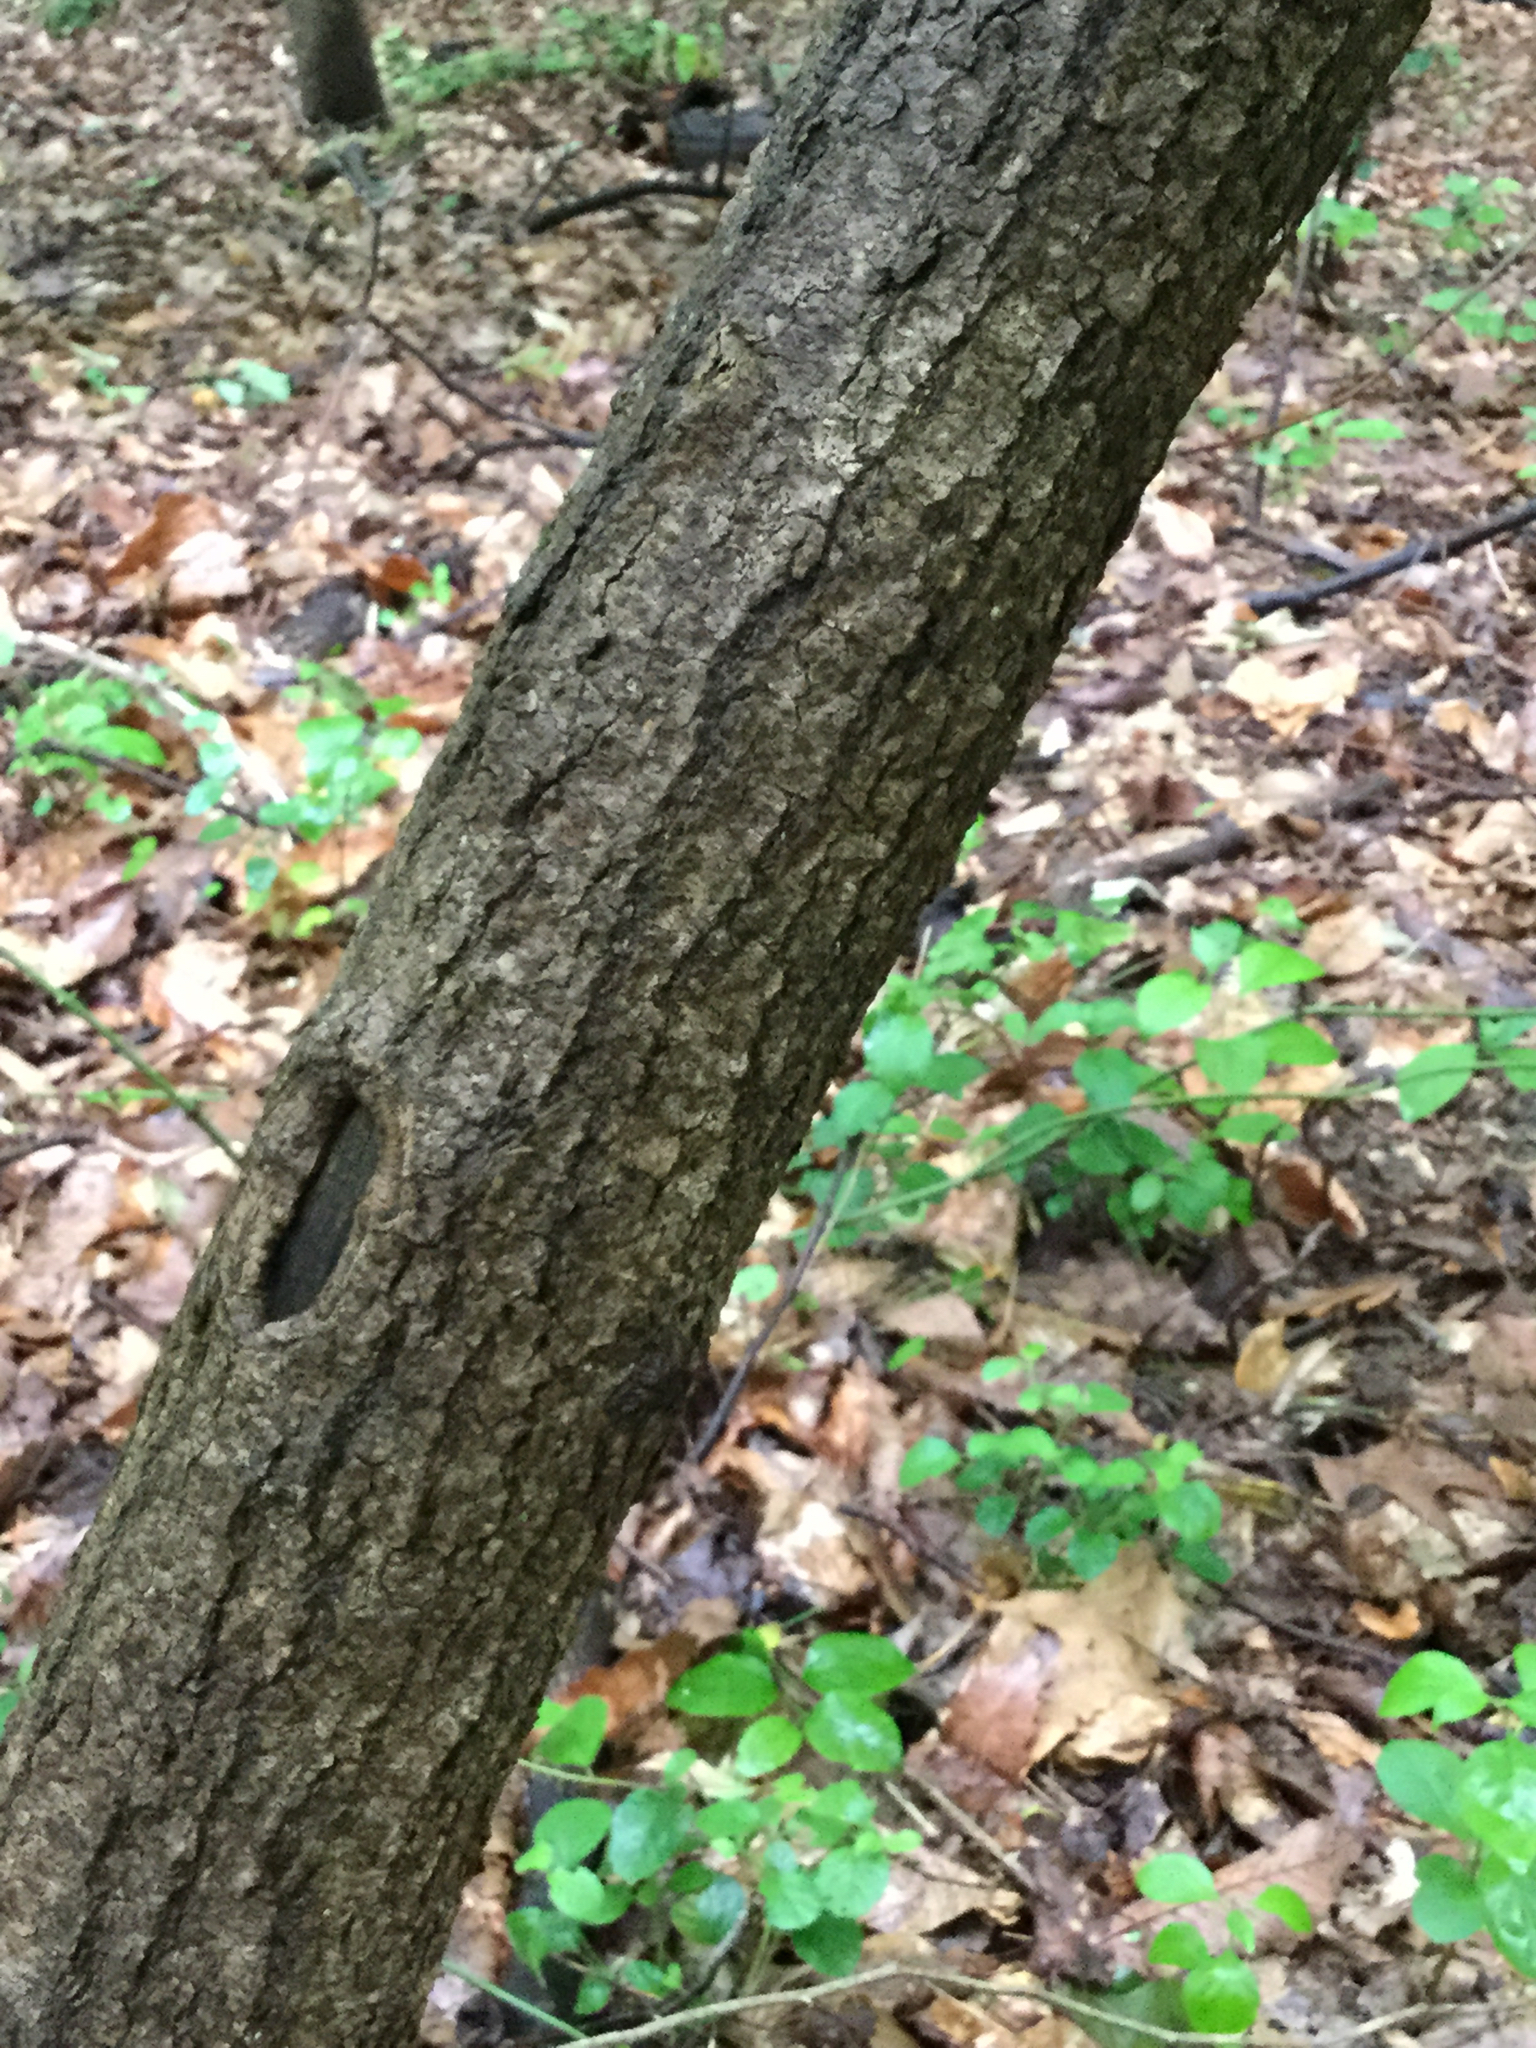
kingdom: Plantae
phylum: Tracheophyta
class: Magnoliopsida
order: Sapindales
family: Sapindaceae
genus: Acer
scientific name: Acer negundo
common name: Ashleaf maple
